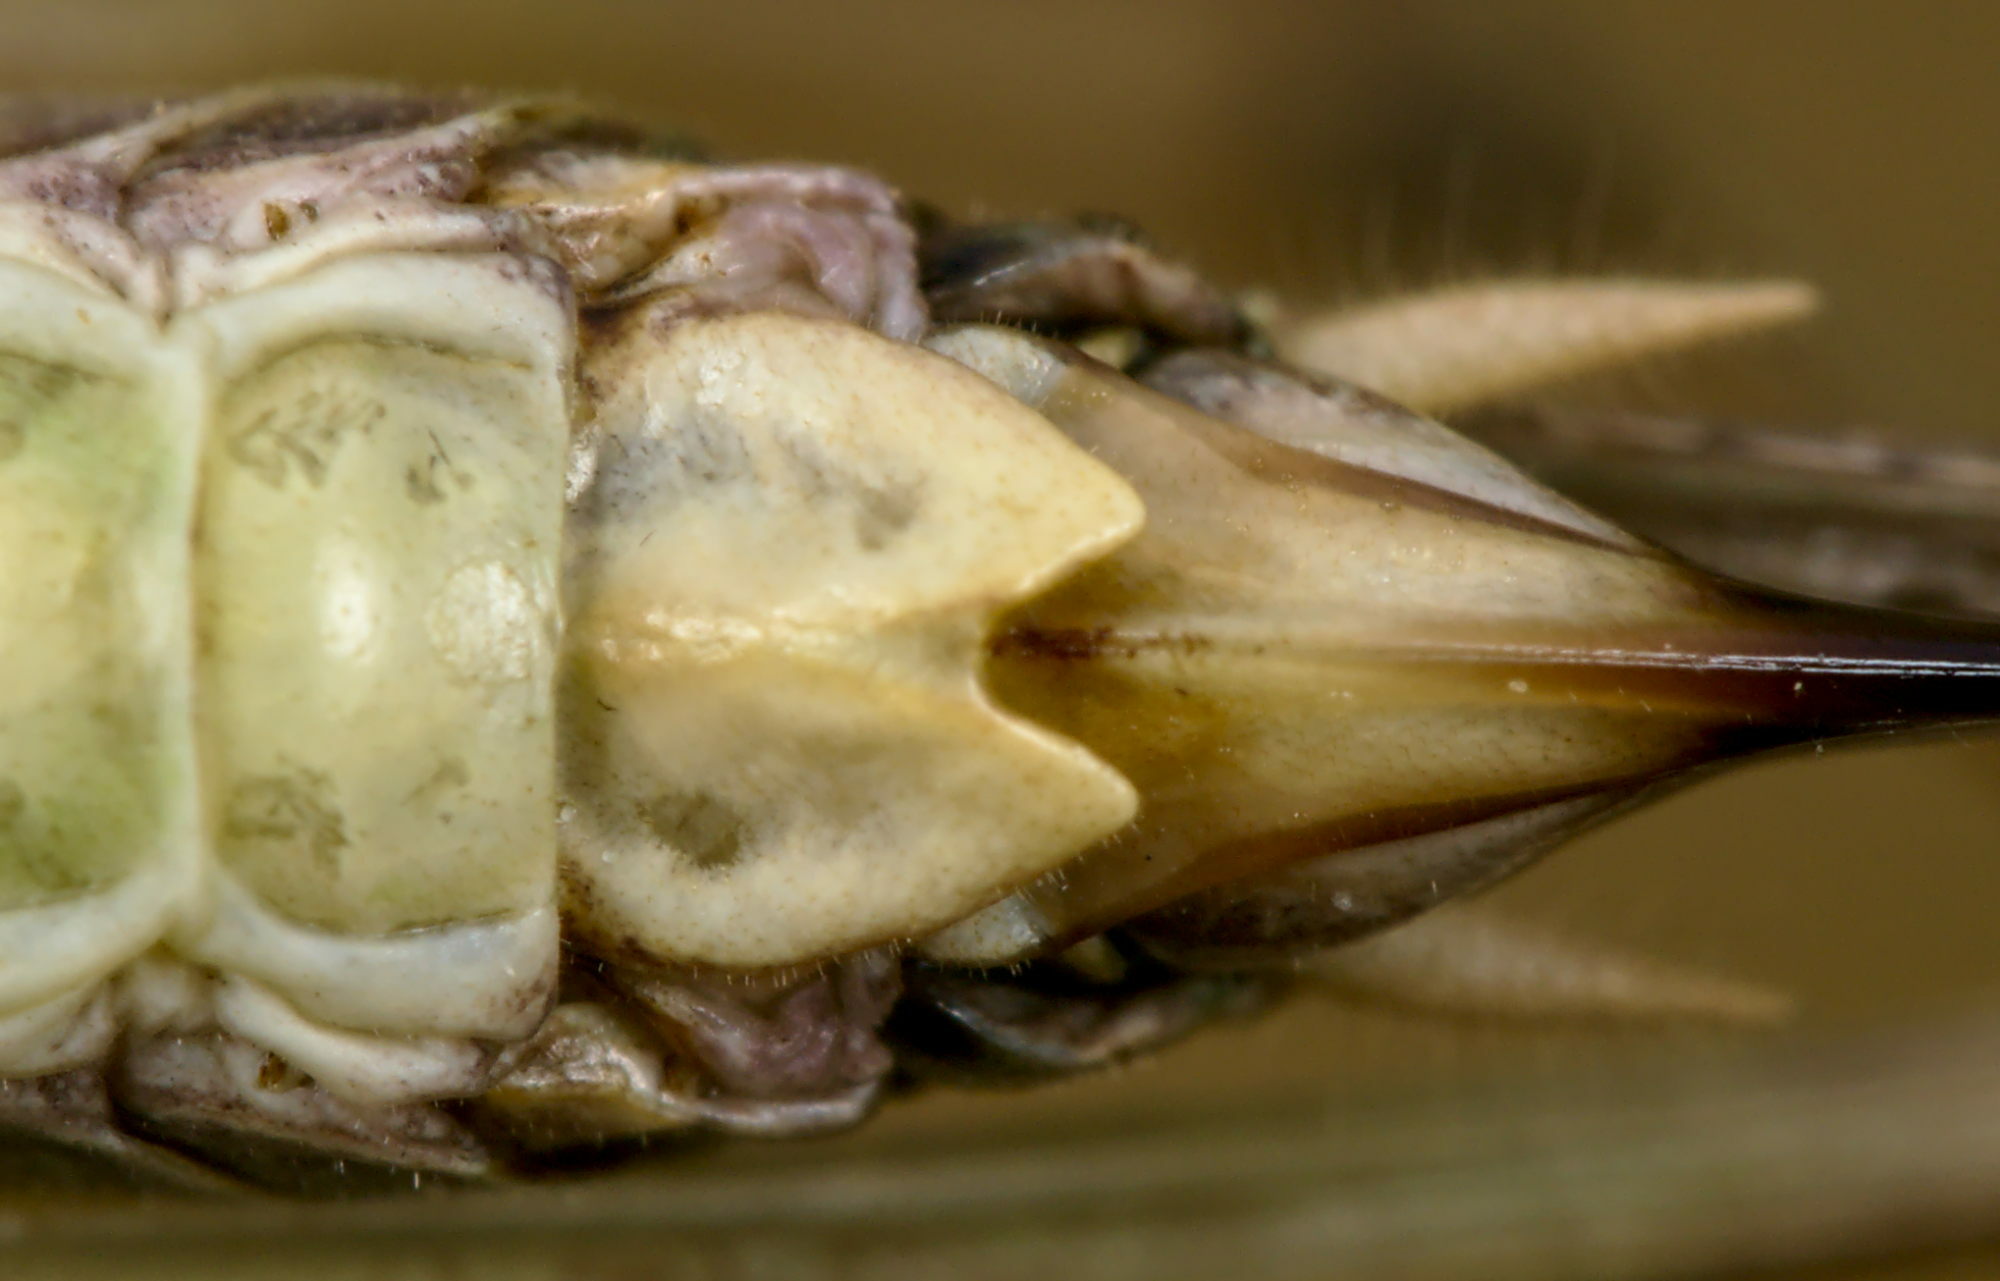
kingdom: Animalia
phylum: Arthropoda
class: Insecta
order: Orthoptera
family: Tettigoniidae
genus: Platycleis
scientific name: Platycleis albopunctata
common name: Grey bush-cricket
